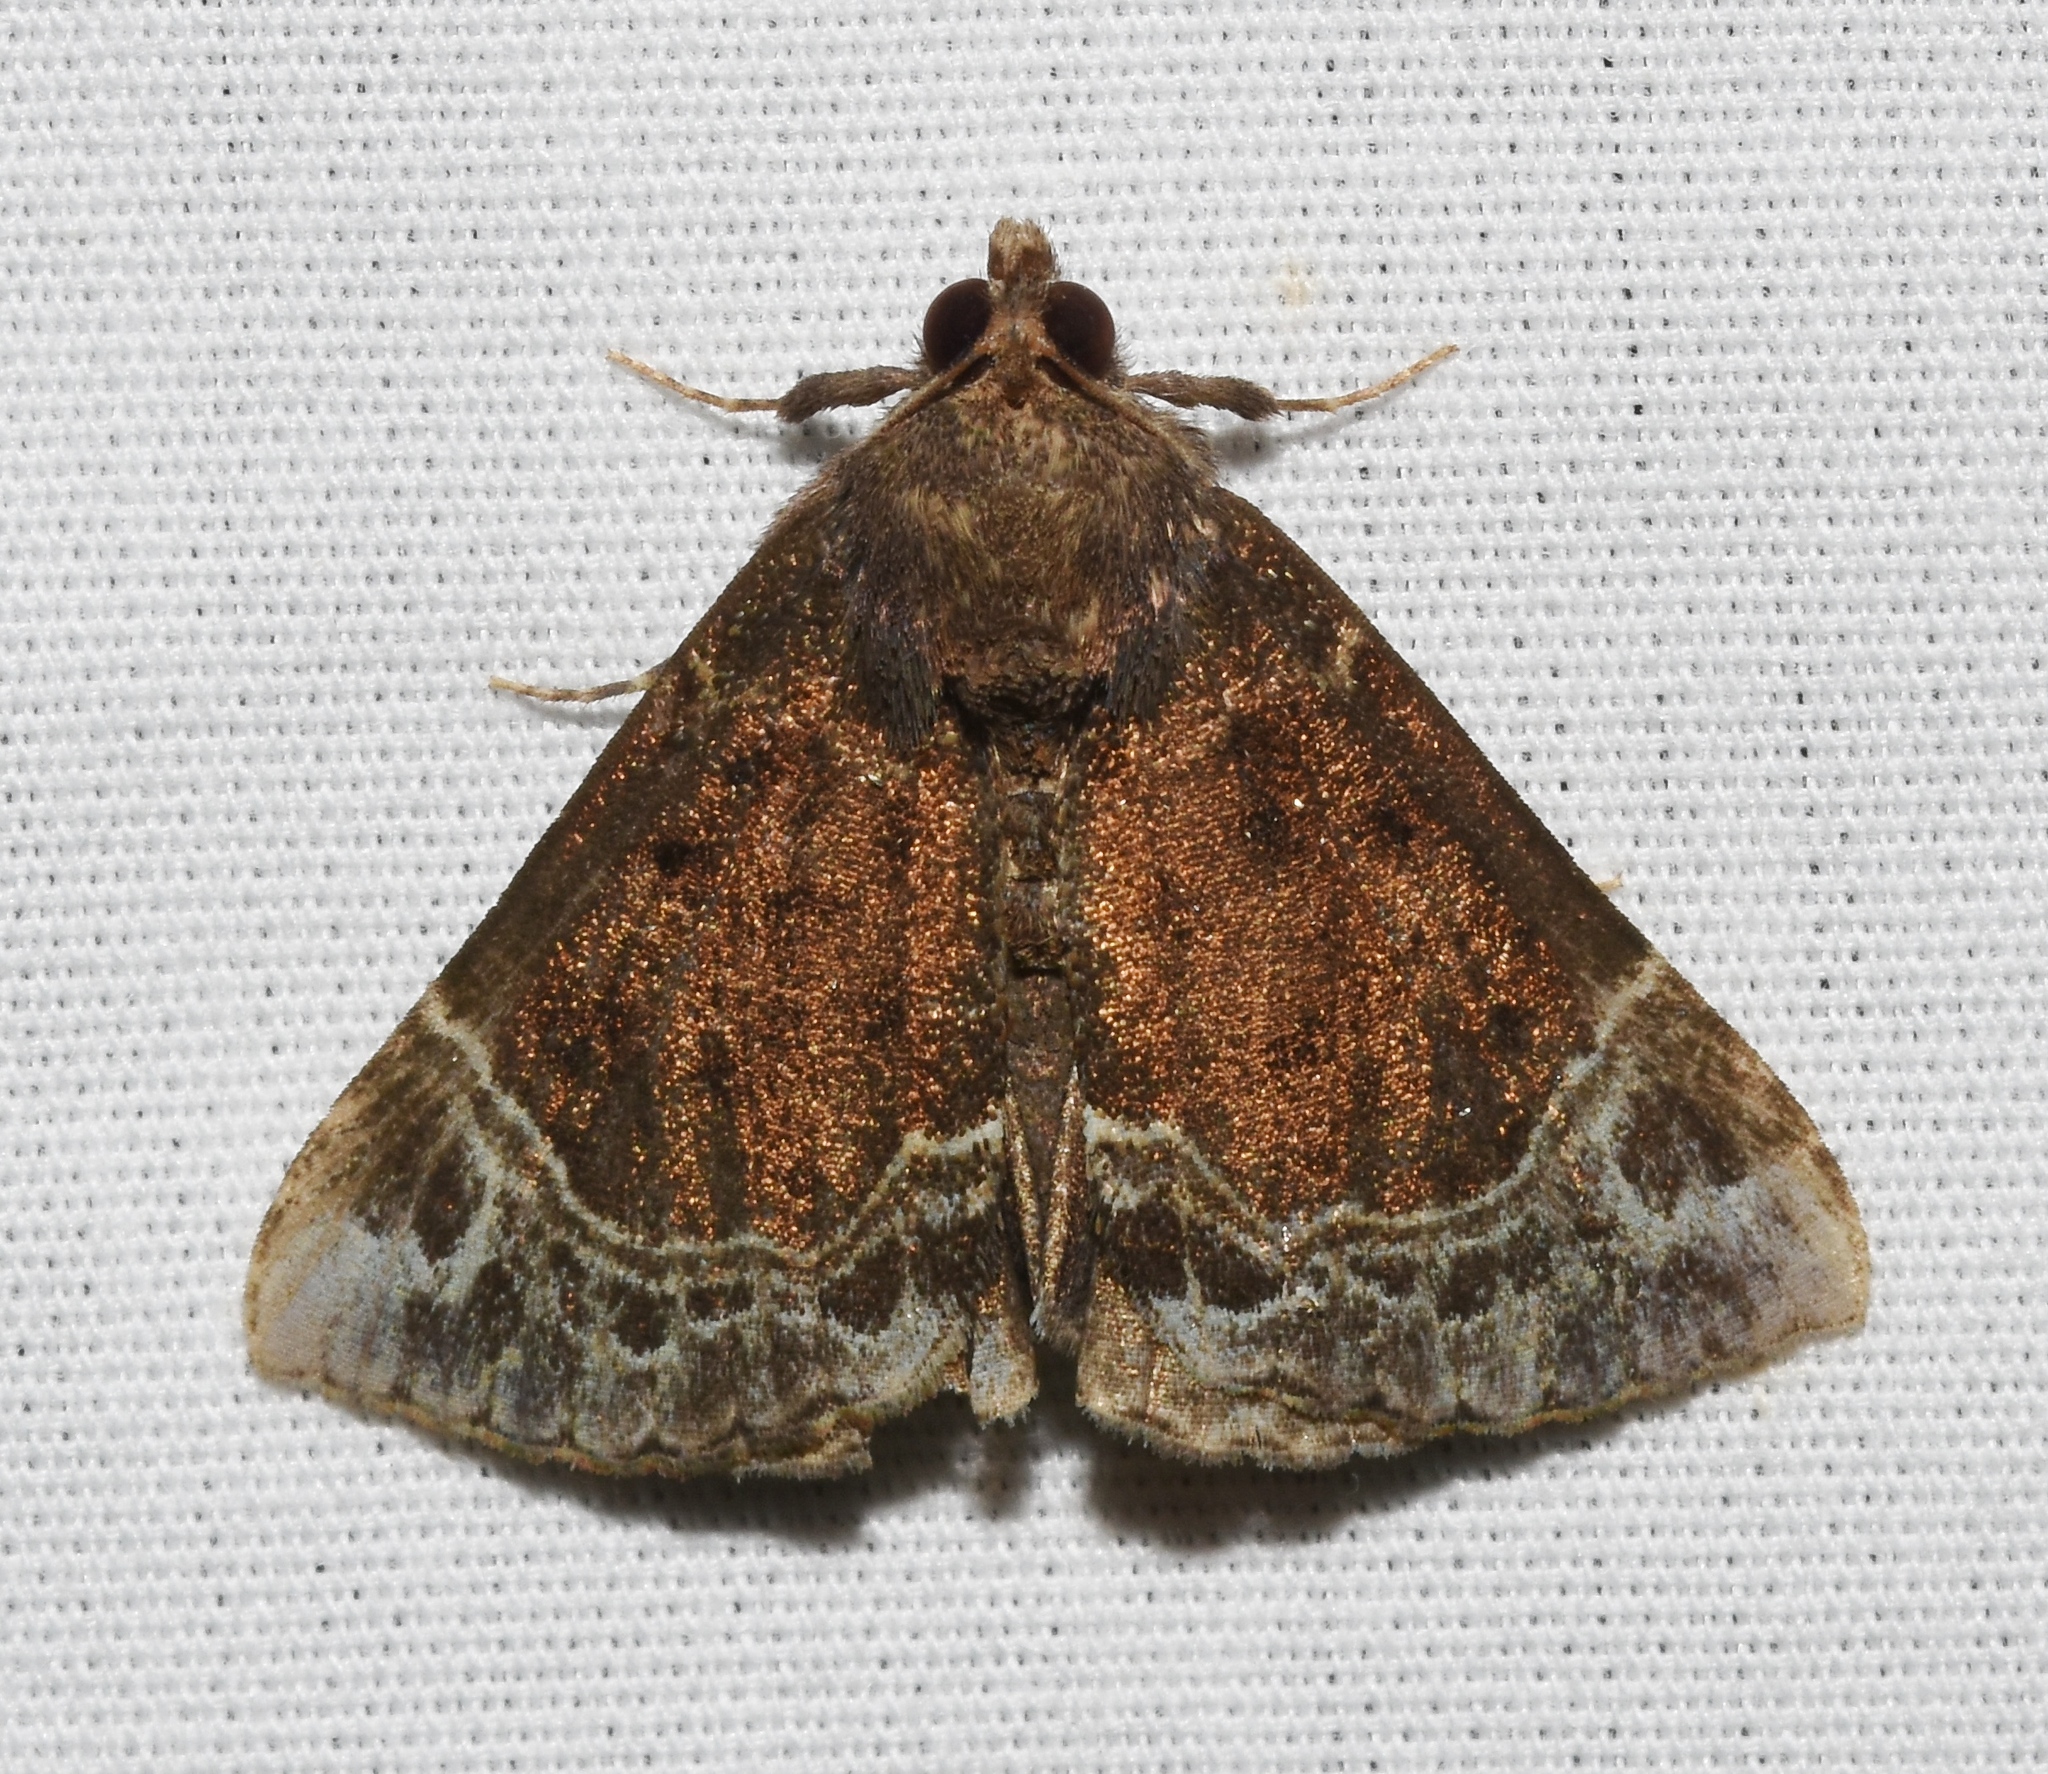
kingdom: Animalia
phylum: Arthropoda
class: Insecta
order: Lepidoptera
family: Erebidae
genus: Hypena
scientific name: Hypena abalienalis
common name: White-lined snout
